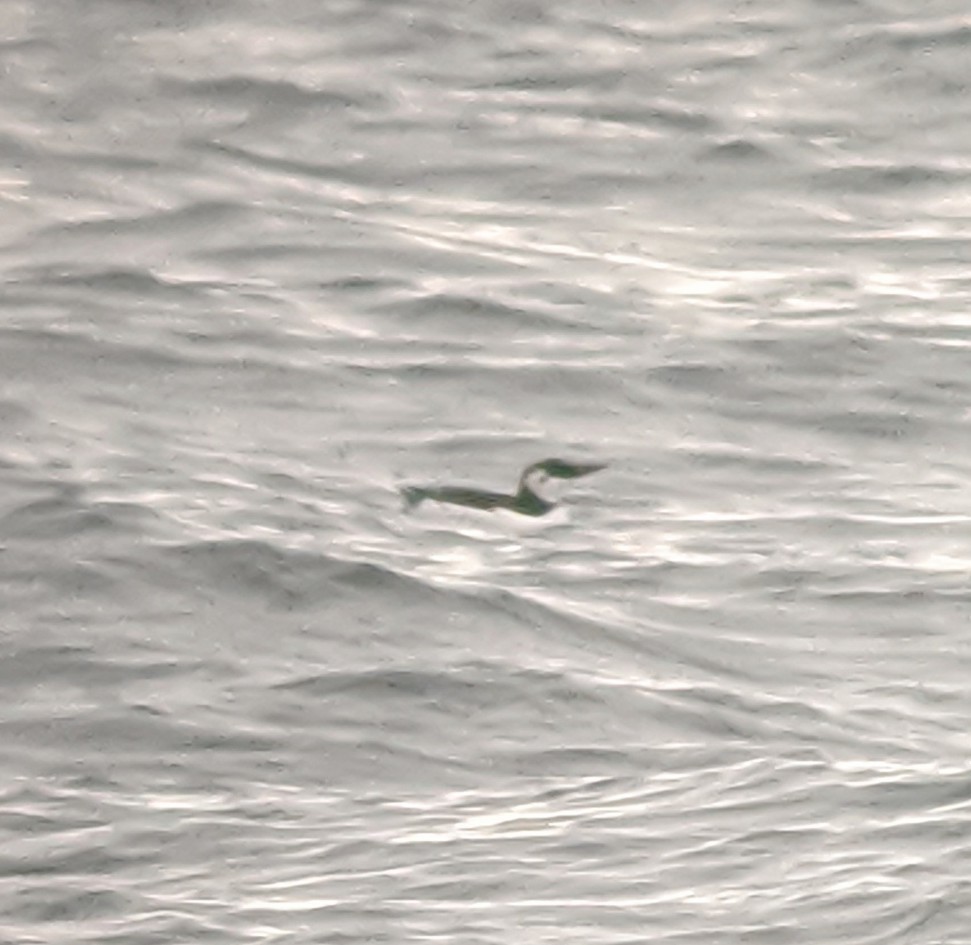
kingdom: Animalia
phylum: Chordata
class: Aves
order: Charadriiformes
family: Alcidae
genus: Uria
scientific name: Uria aalge
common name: Common murre
